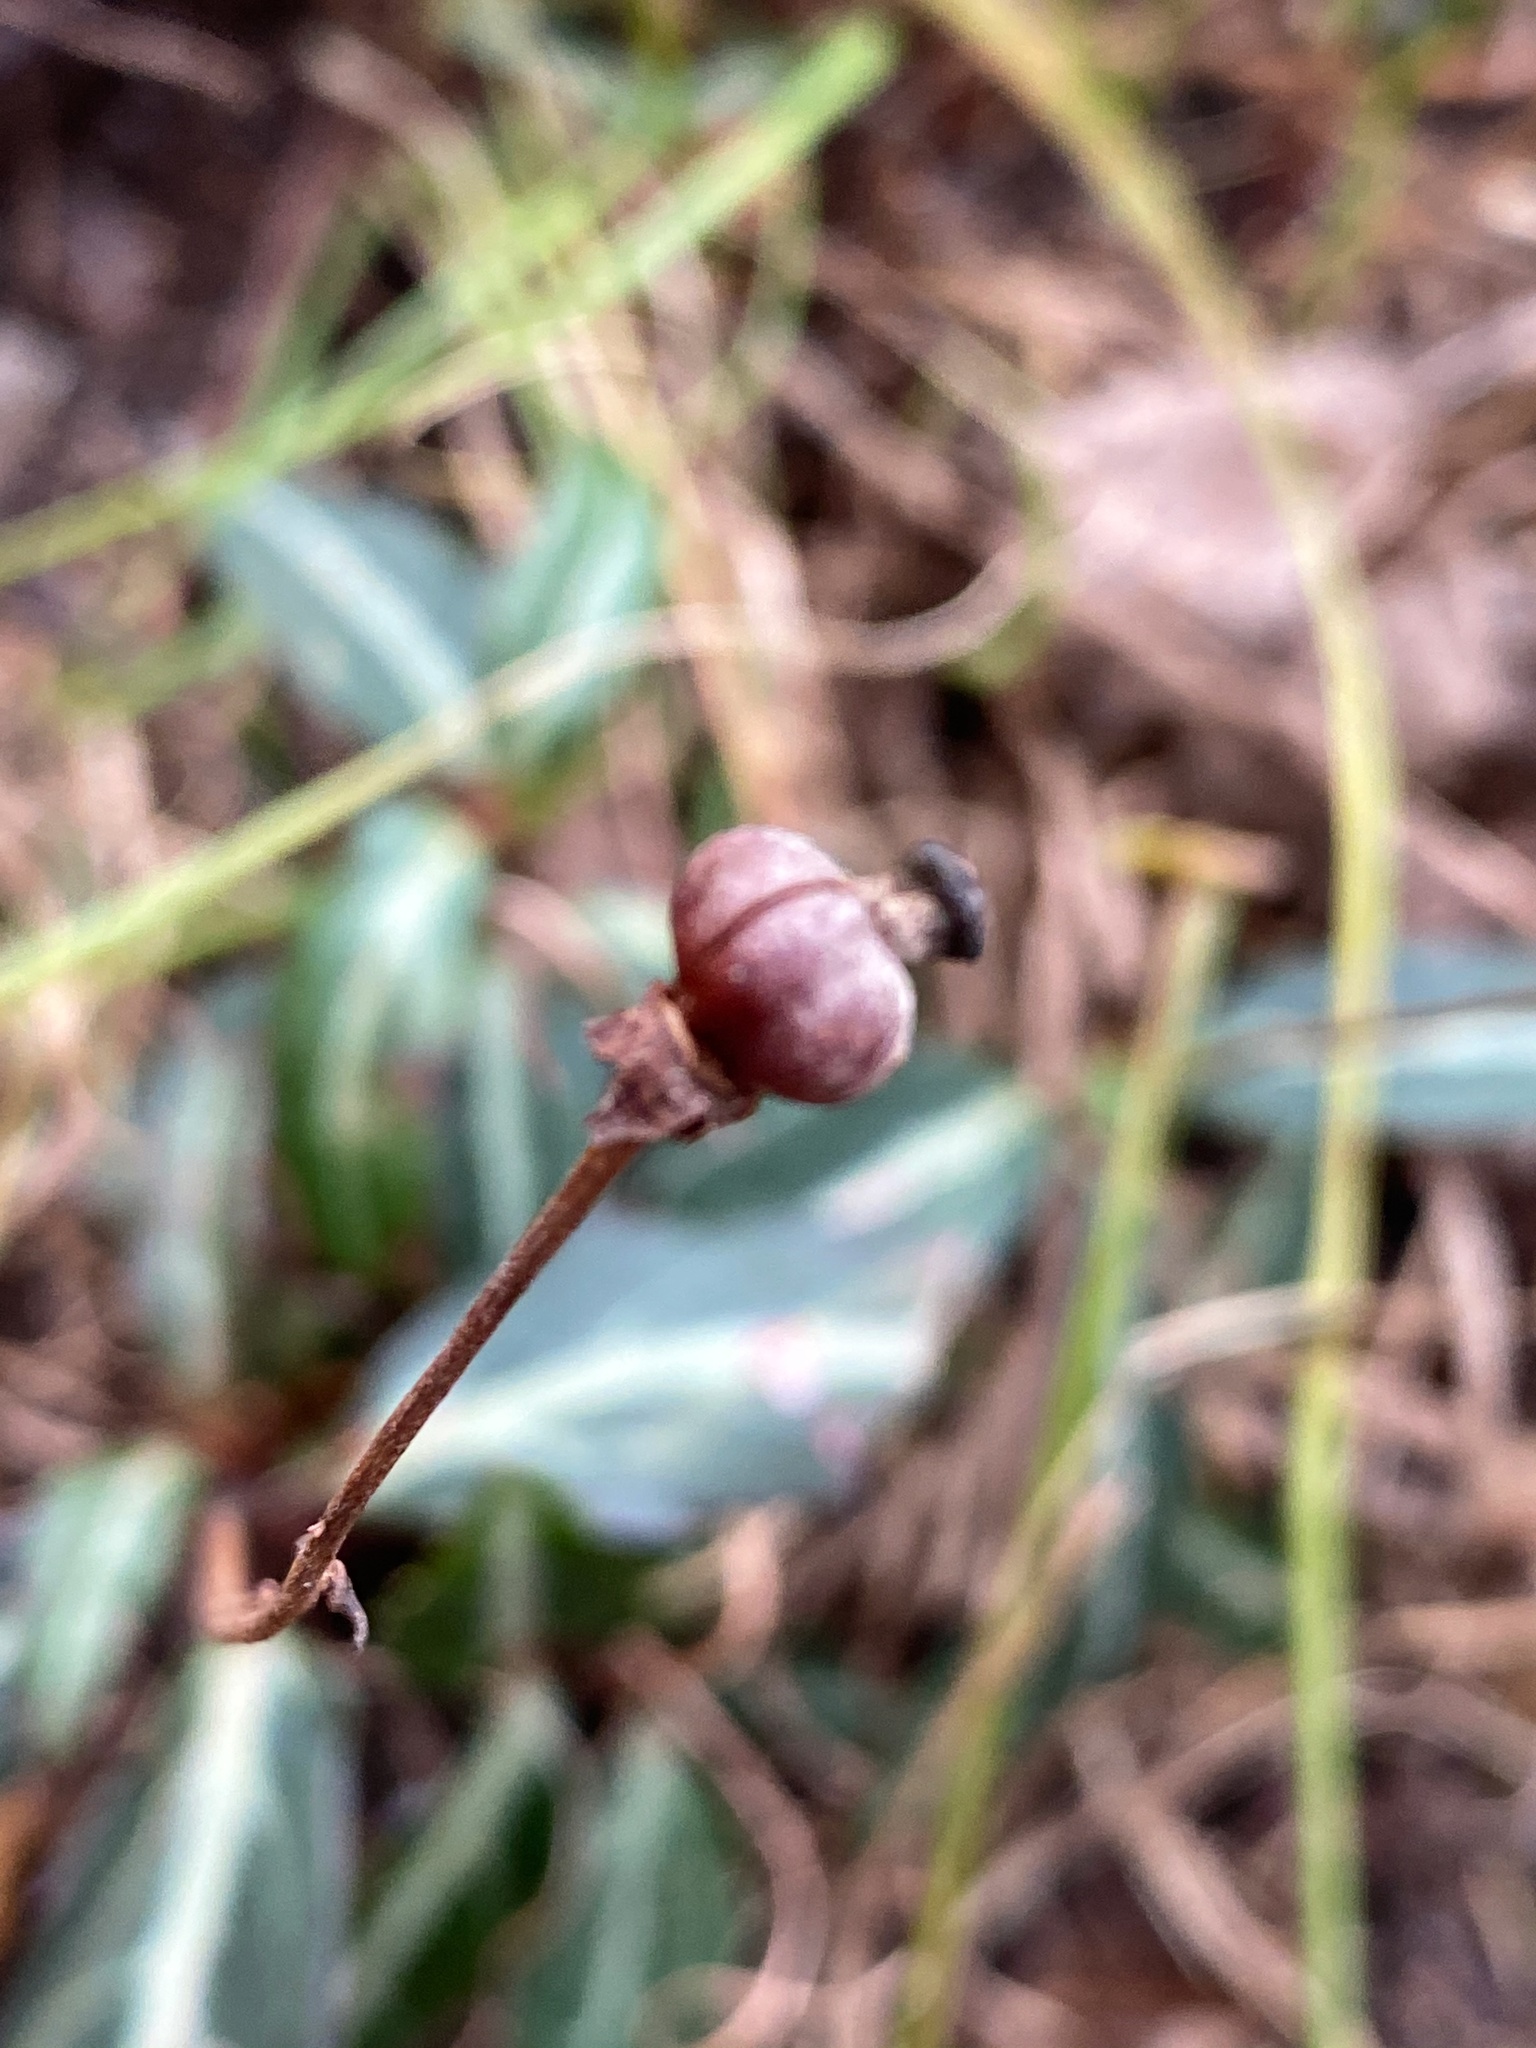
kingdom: Plantae
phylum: Tracheophyta
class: Magnoliopsida
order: Ericales
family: Ericaceae
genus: Chimaphila
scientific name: Chimaphila maculata
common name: Spotted pipsissewa
